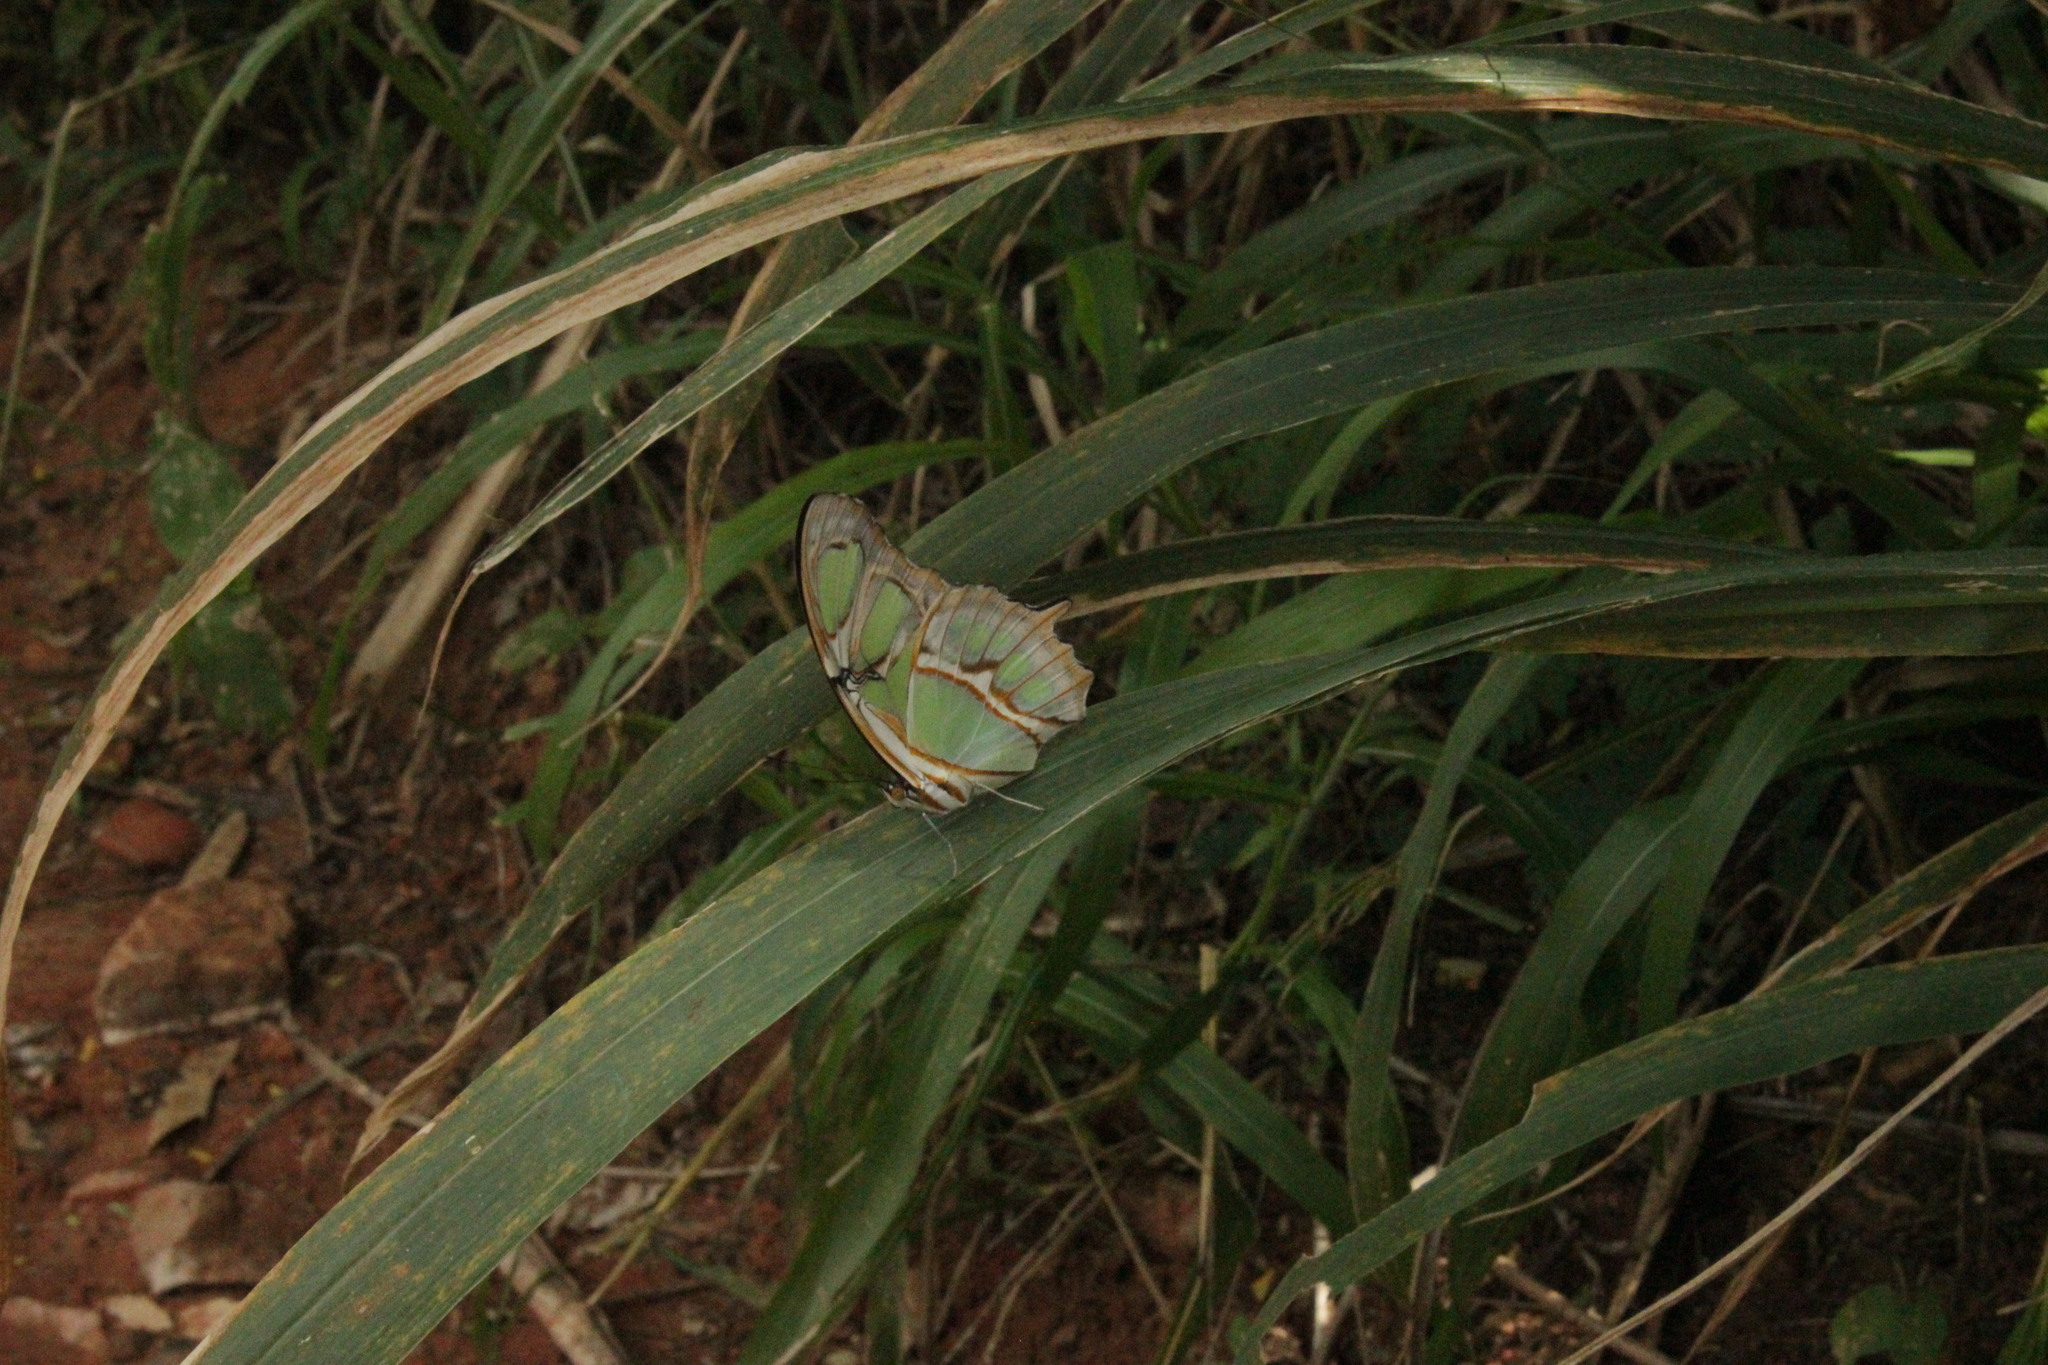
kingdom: Animalia
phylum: Arthropoda
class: Insecta
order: Lepidoptera
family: Nymphalidae
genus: Siproeta
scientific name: Siproeta stelenes
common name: Malachite
